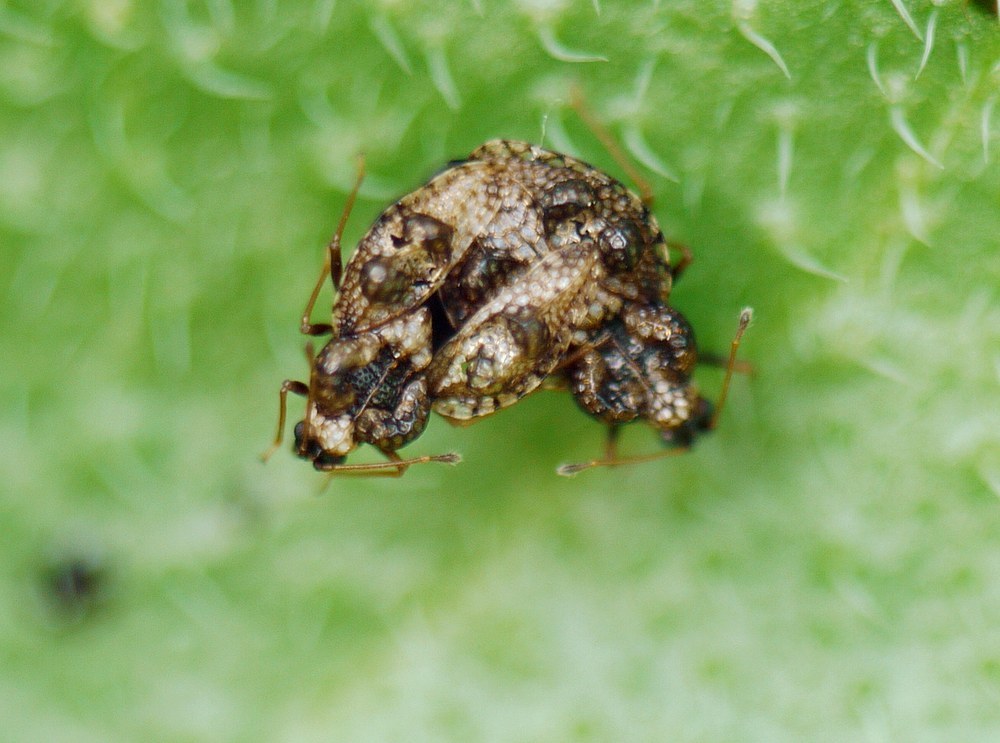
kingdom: Animalia
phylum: Arthropoda
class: Insecta
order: Hemiptera
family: Tingidae
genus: Dictyla
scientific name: Dictyla rotundata
